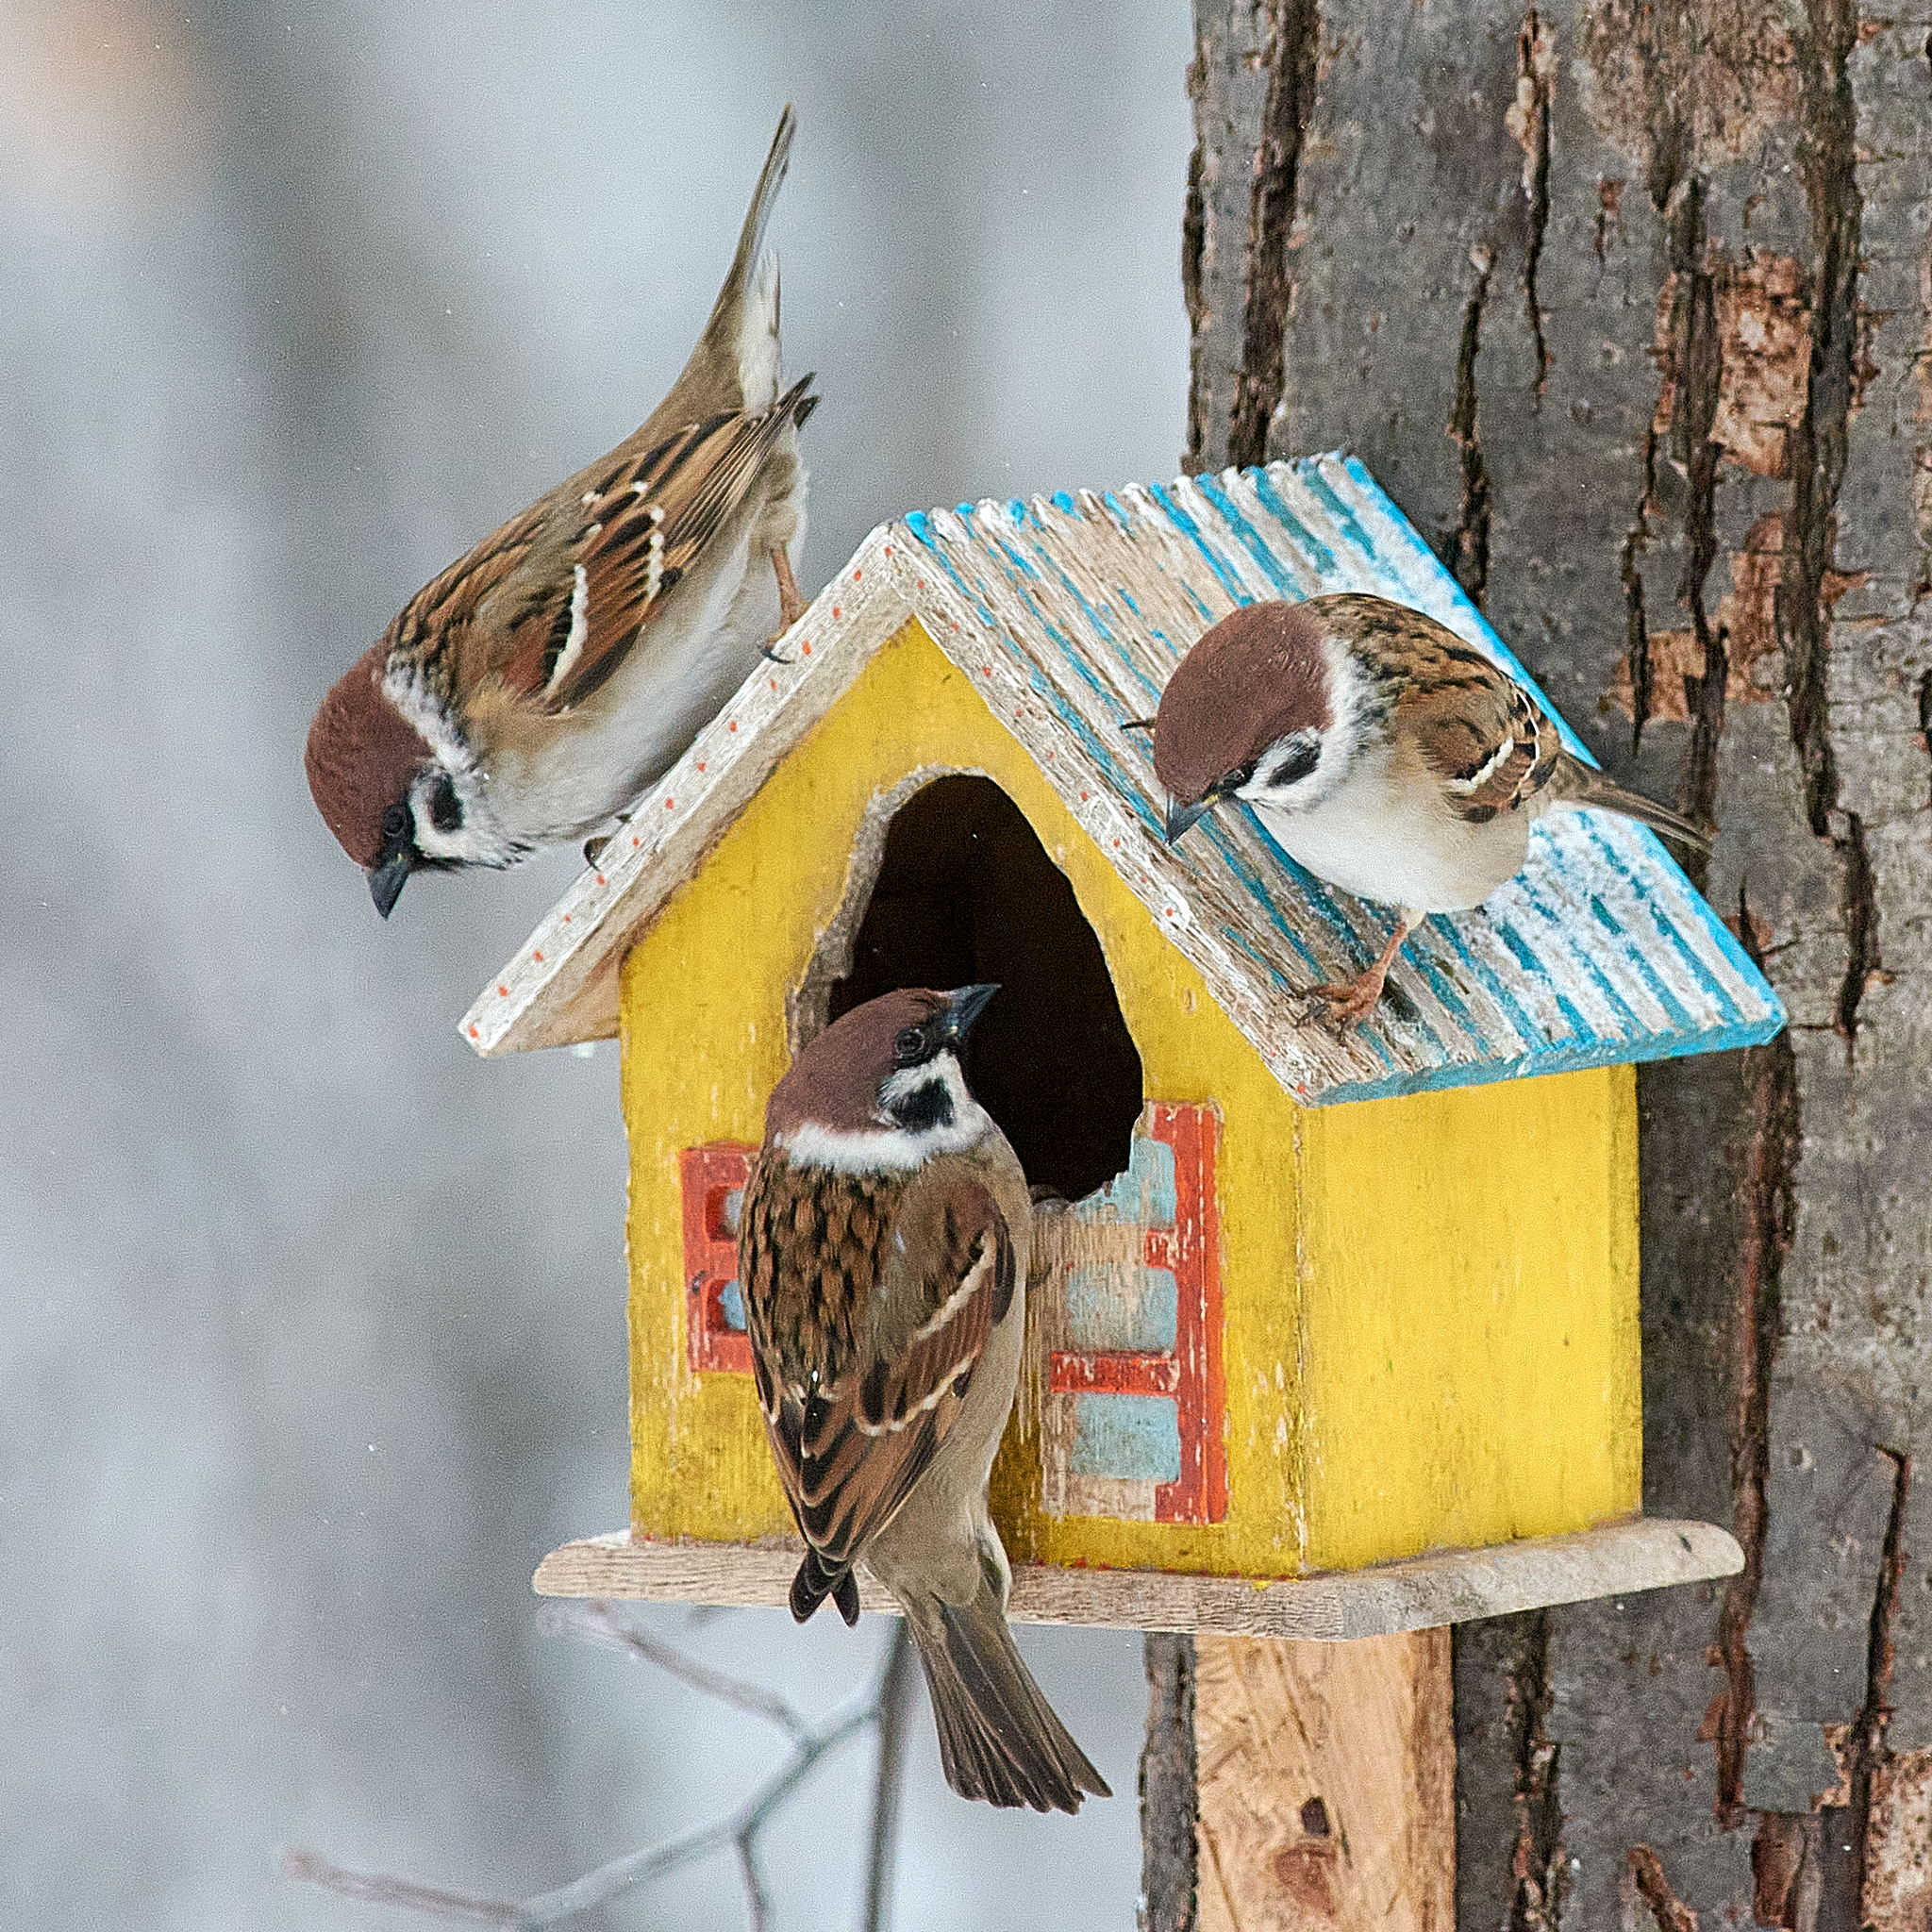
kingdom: Animalia
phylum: Chordata
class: Aves
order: Passeriformes
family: Passeridae
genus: Passer
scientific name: Passer montanus
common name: Eurasian tree sparrow
